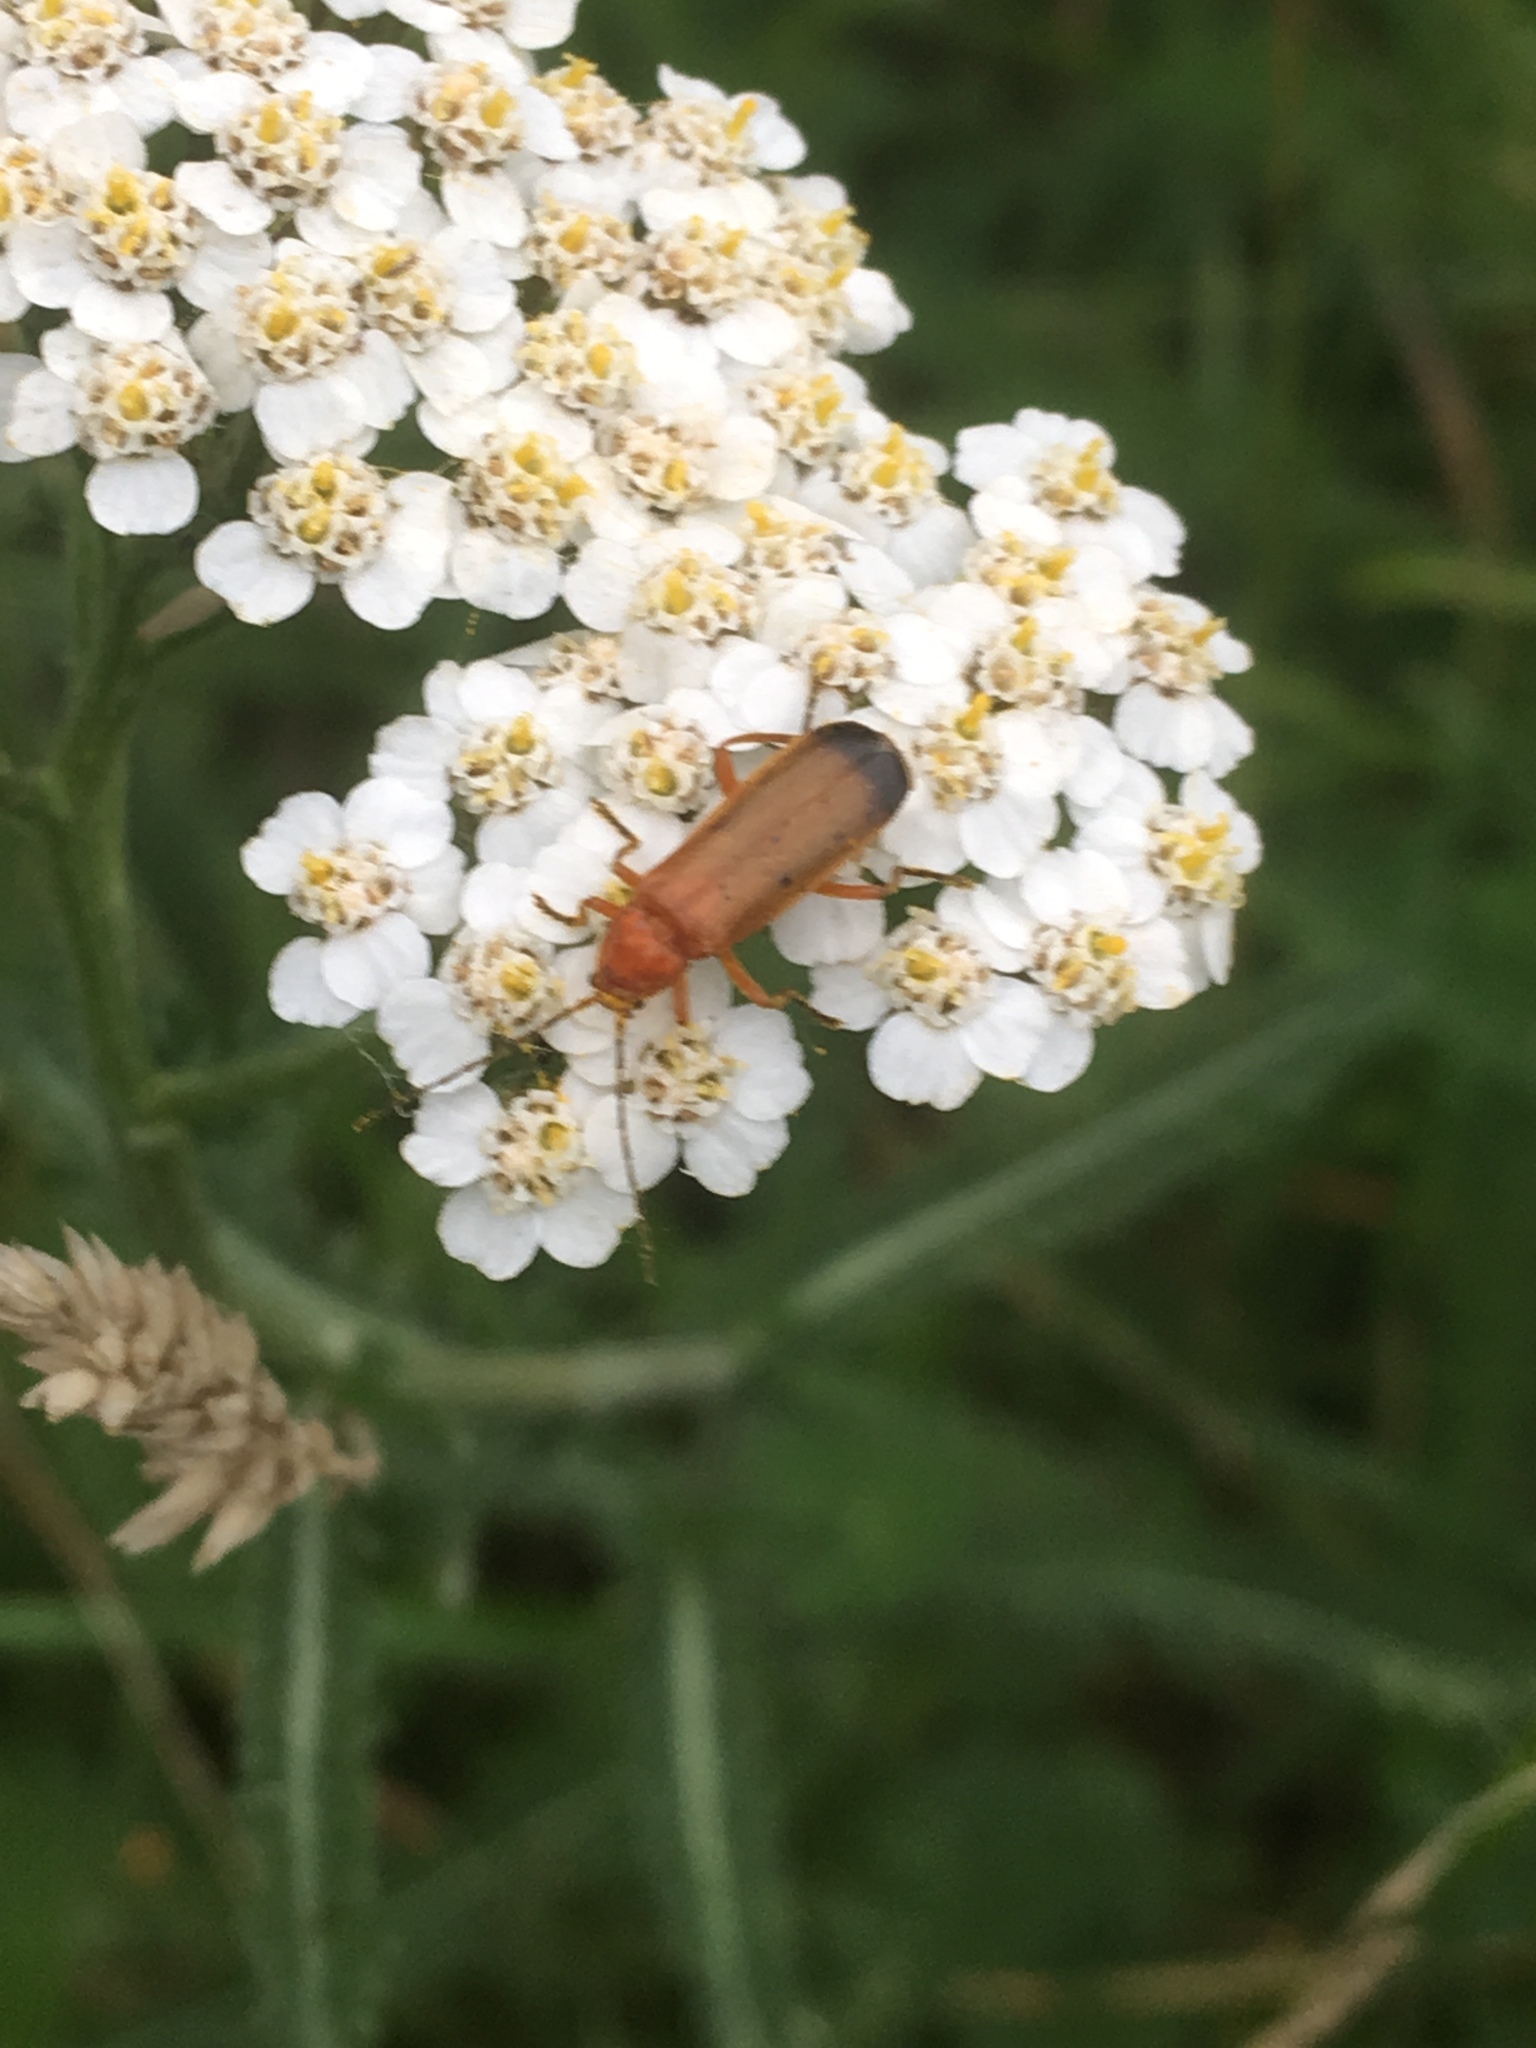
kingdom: Animalia
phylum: Arthropoda
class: Insecta
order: Coleoptera
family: Cantharidae
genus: Rhagonycha
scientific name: Rhagonycha fulva
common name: Common red soldier beetle
